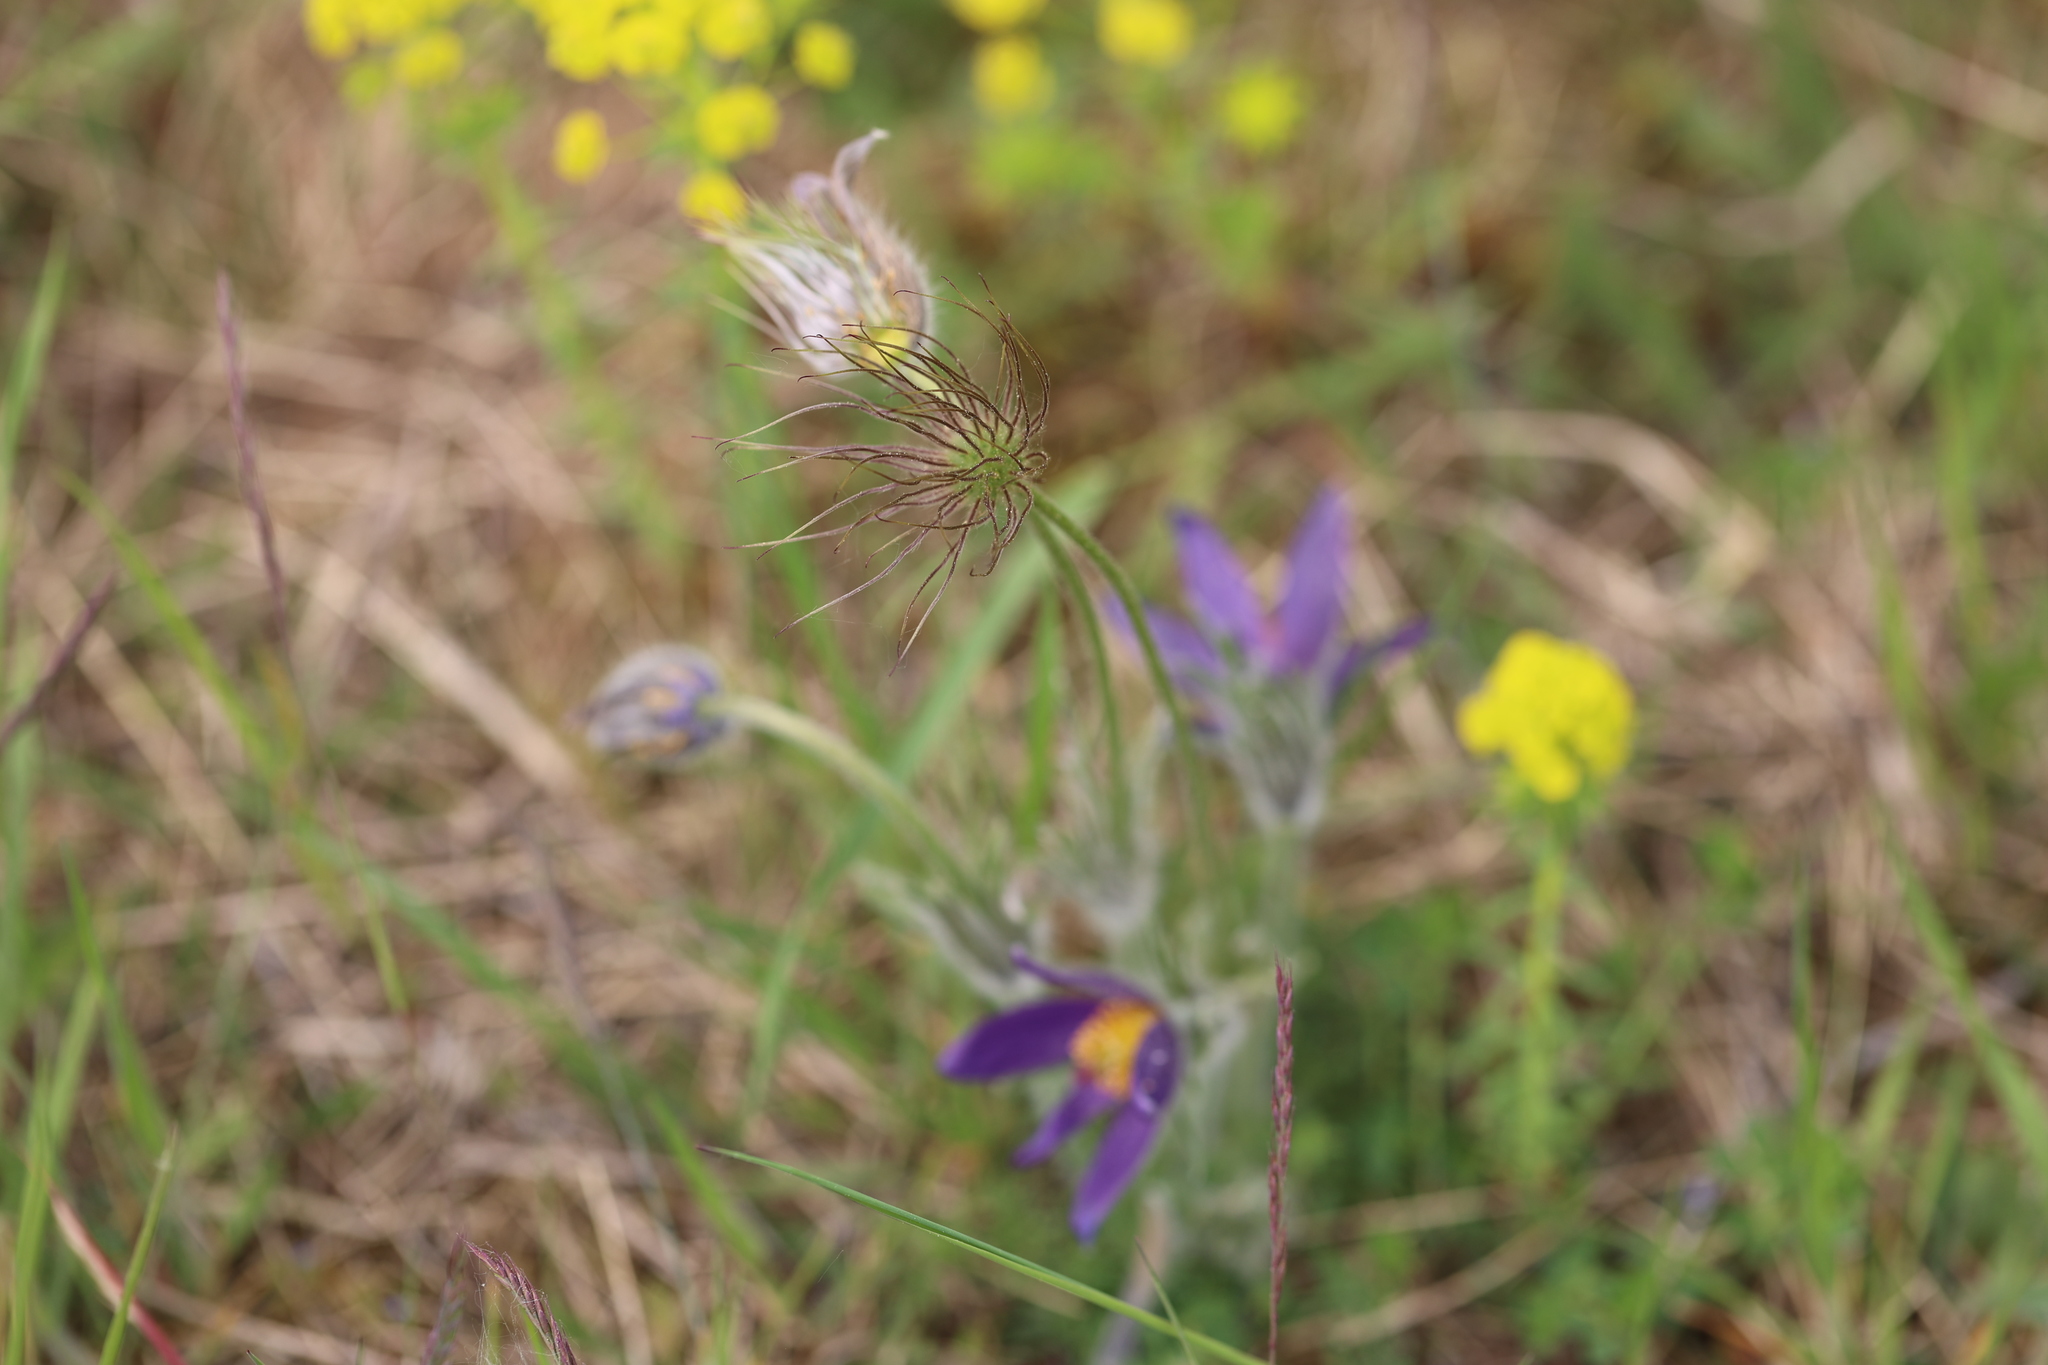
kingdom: Plantae
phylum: Tracheophyta
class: Magnoliopsida
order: Ranunculales
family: Ranunculaceae
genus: Pulsatilla
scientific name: Pulsatilla vulgaris
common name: Pasqueflower
